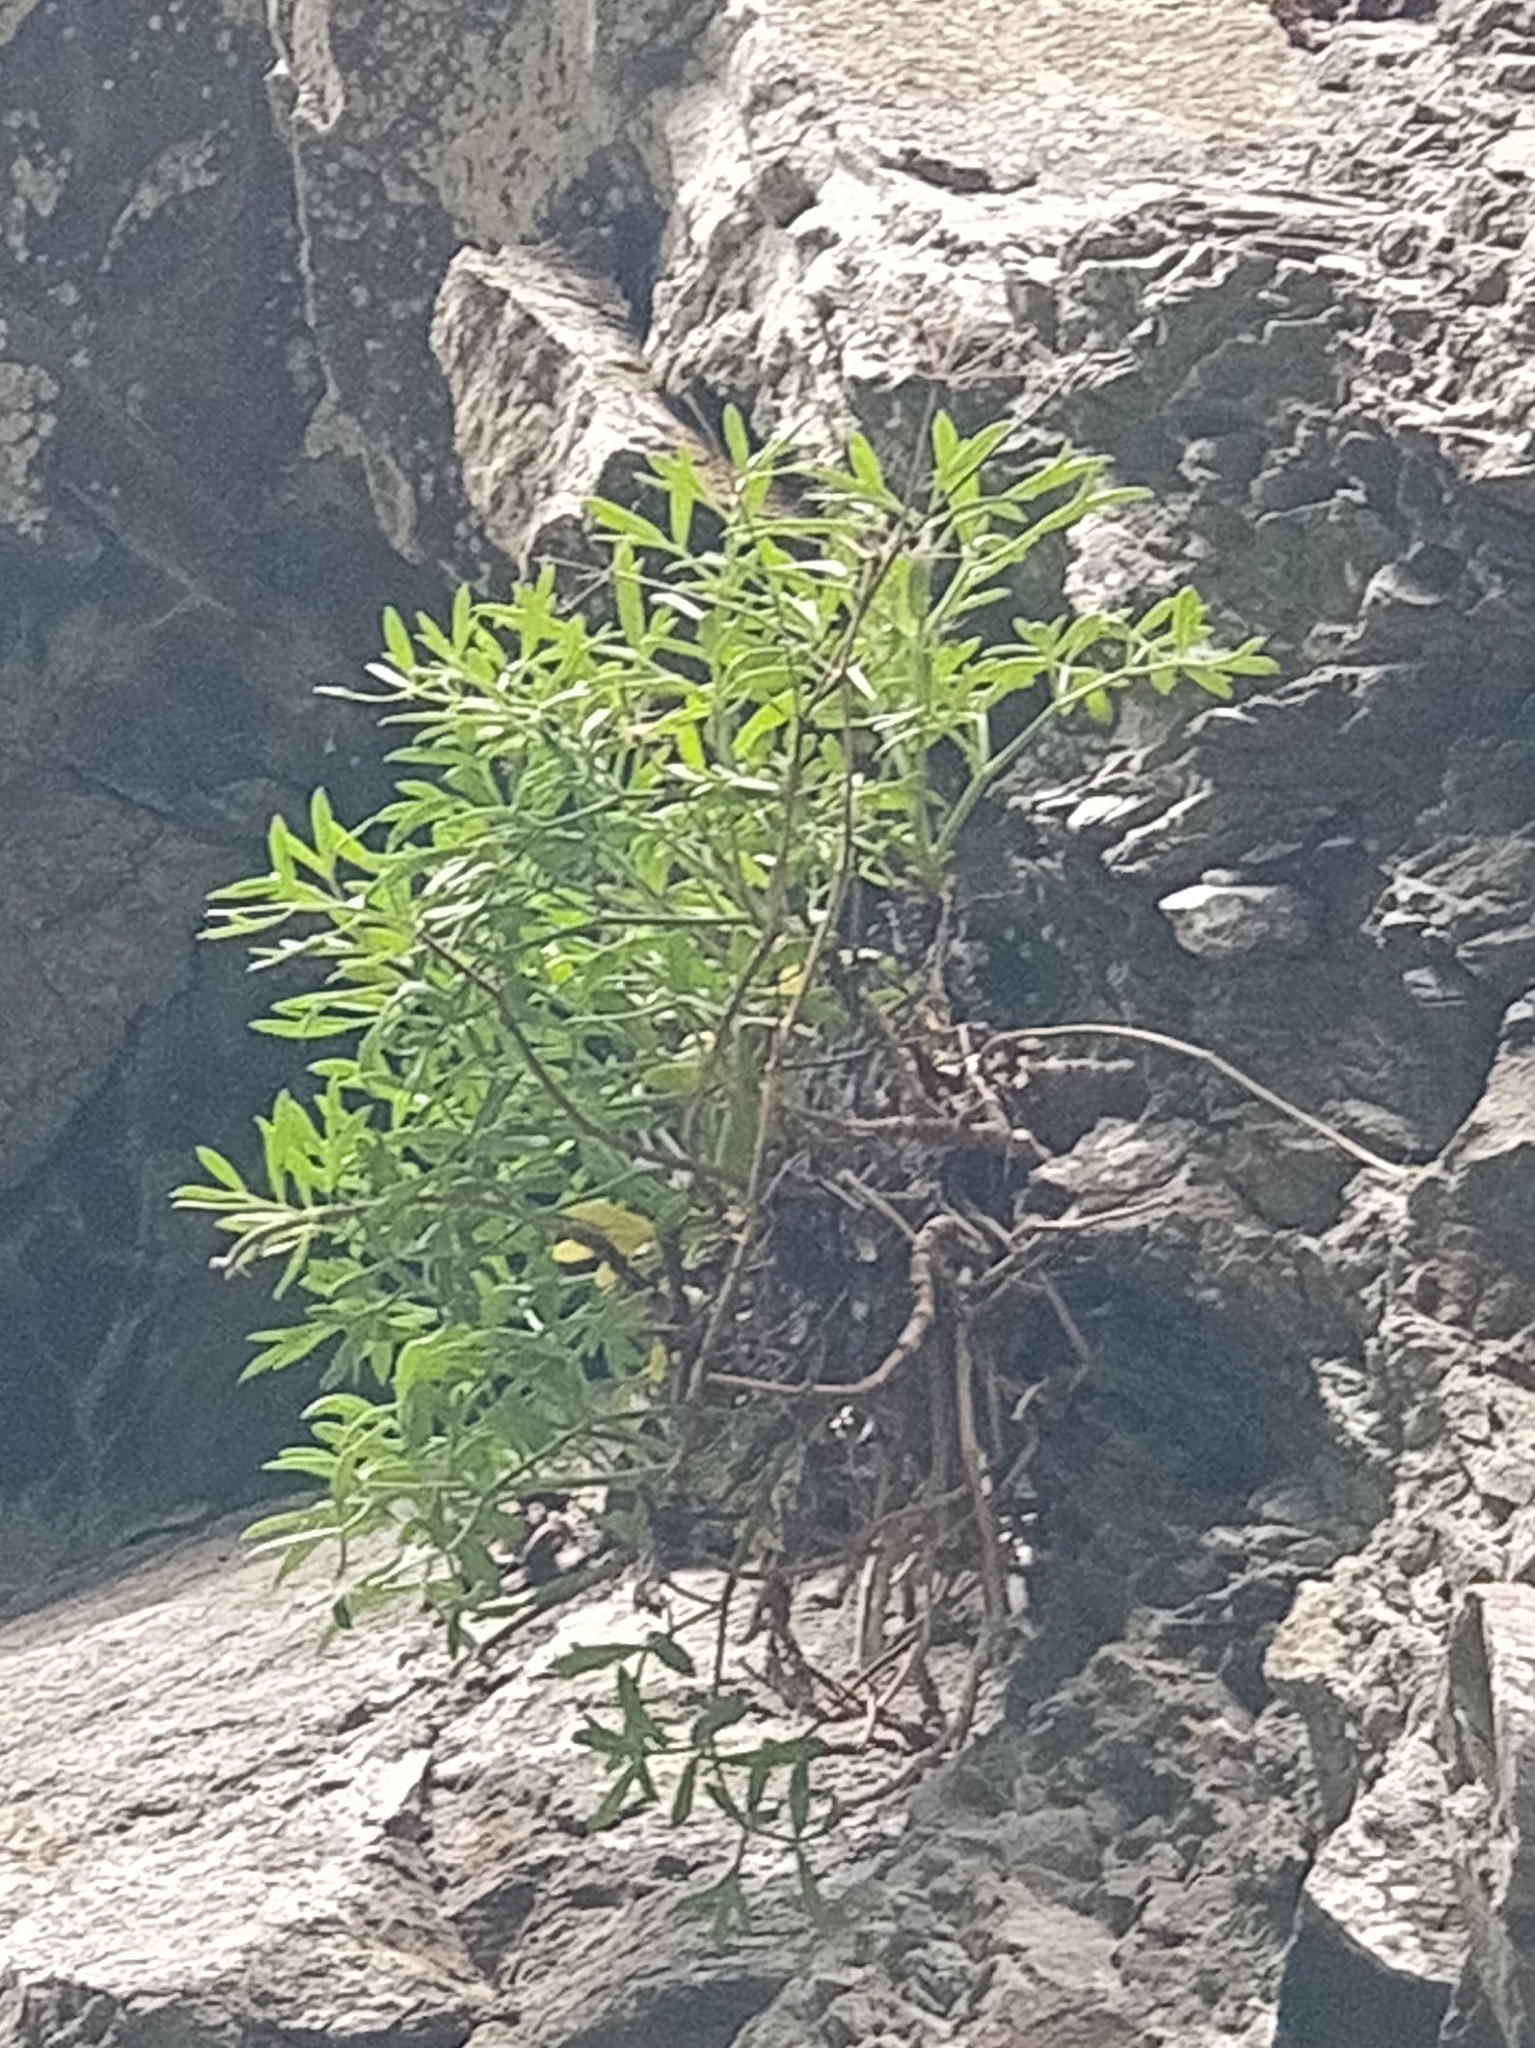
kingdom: Plantae
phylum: Tracheophyta
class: Magnoliopsida
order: Apiales
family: Apiaceae
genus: Crithmum
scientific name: Crithmum maritimum
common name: Rock samphire
